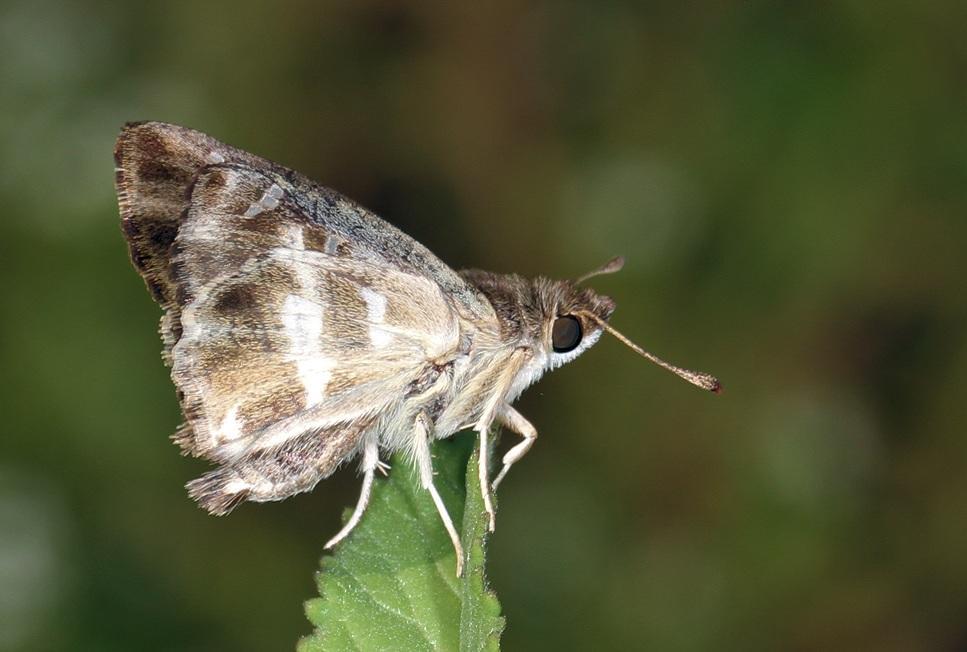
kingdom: Animalia
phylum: Arthropoda
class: Insecta
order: Lepidoptera
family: Hesperiidae
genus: Gomalia
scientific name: Gomalia elma
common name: Green-marbled skipper
